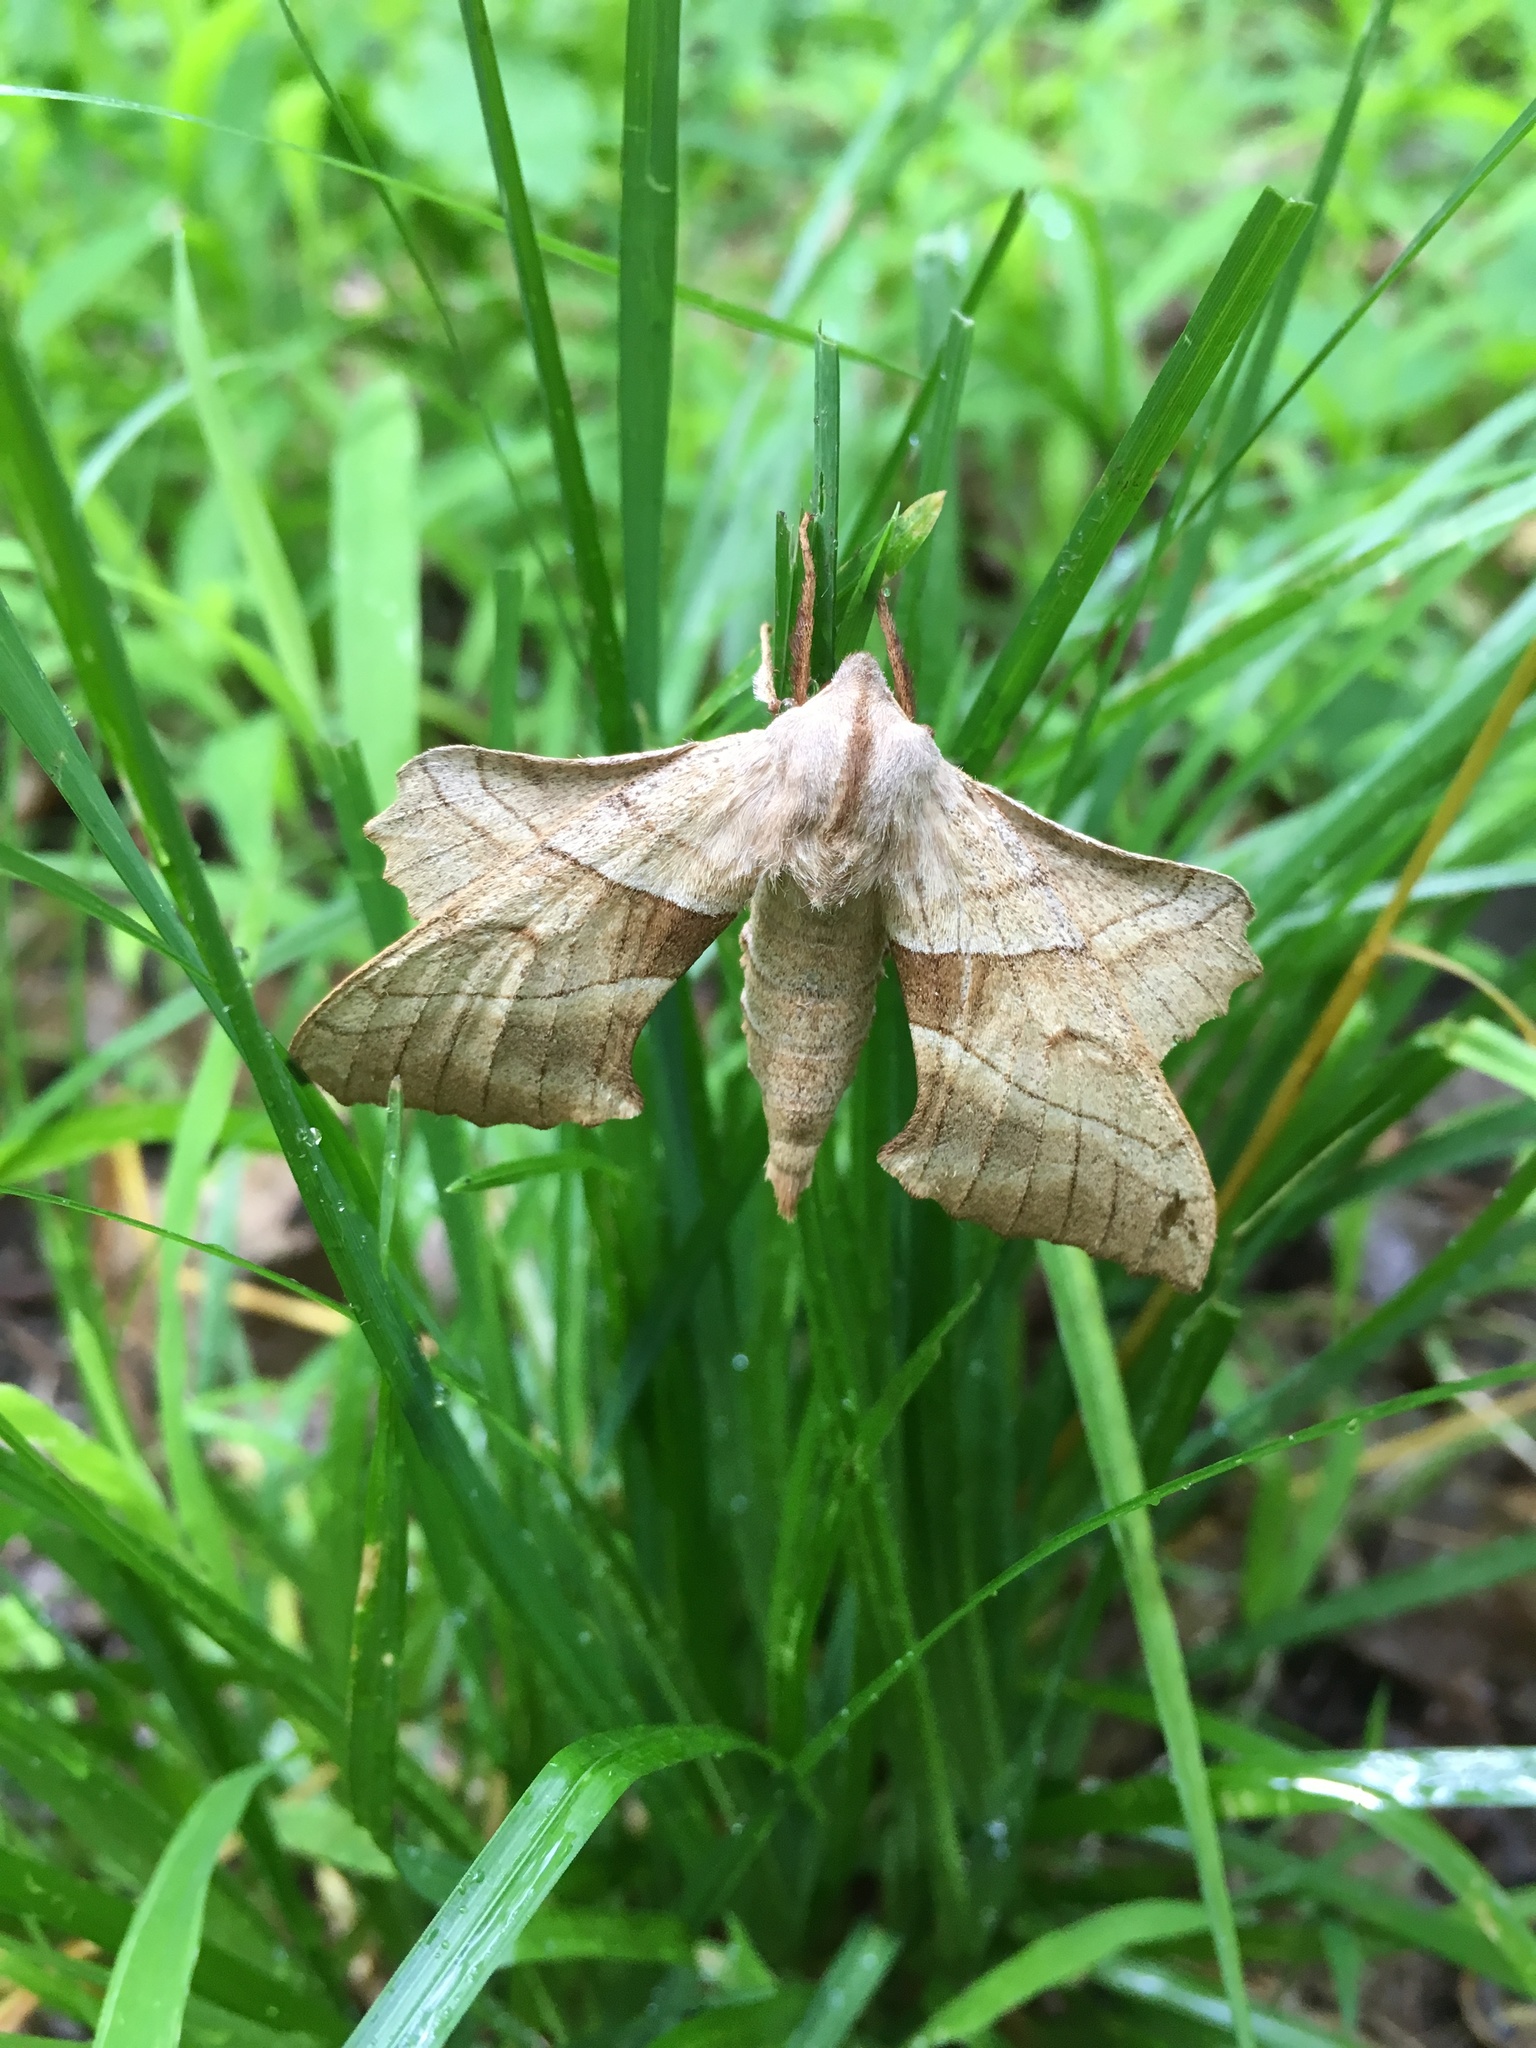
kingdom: Animalia
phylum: Arthropoda
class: Insecta
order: Lepidoptera
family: Sphingidae
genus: Amorpha
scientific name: Amorpha juglandis
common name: Walnut sphinx
